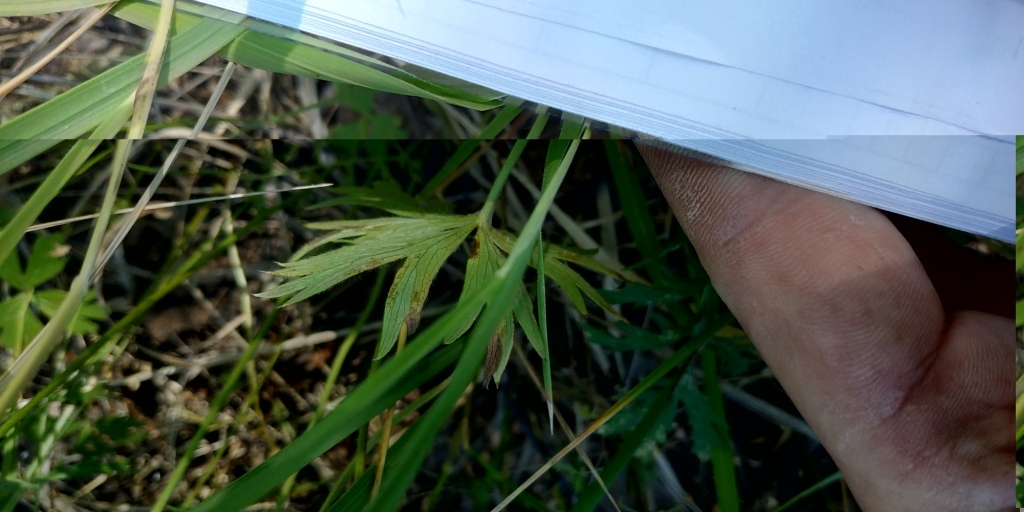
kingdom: Plantae
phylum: Tracheophyta
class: Magnoliopsida
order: Ranunculales
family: Ranunculaceae
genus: Pulsatilla
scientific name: Pulsatilla patens
